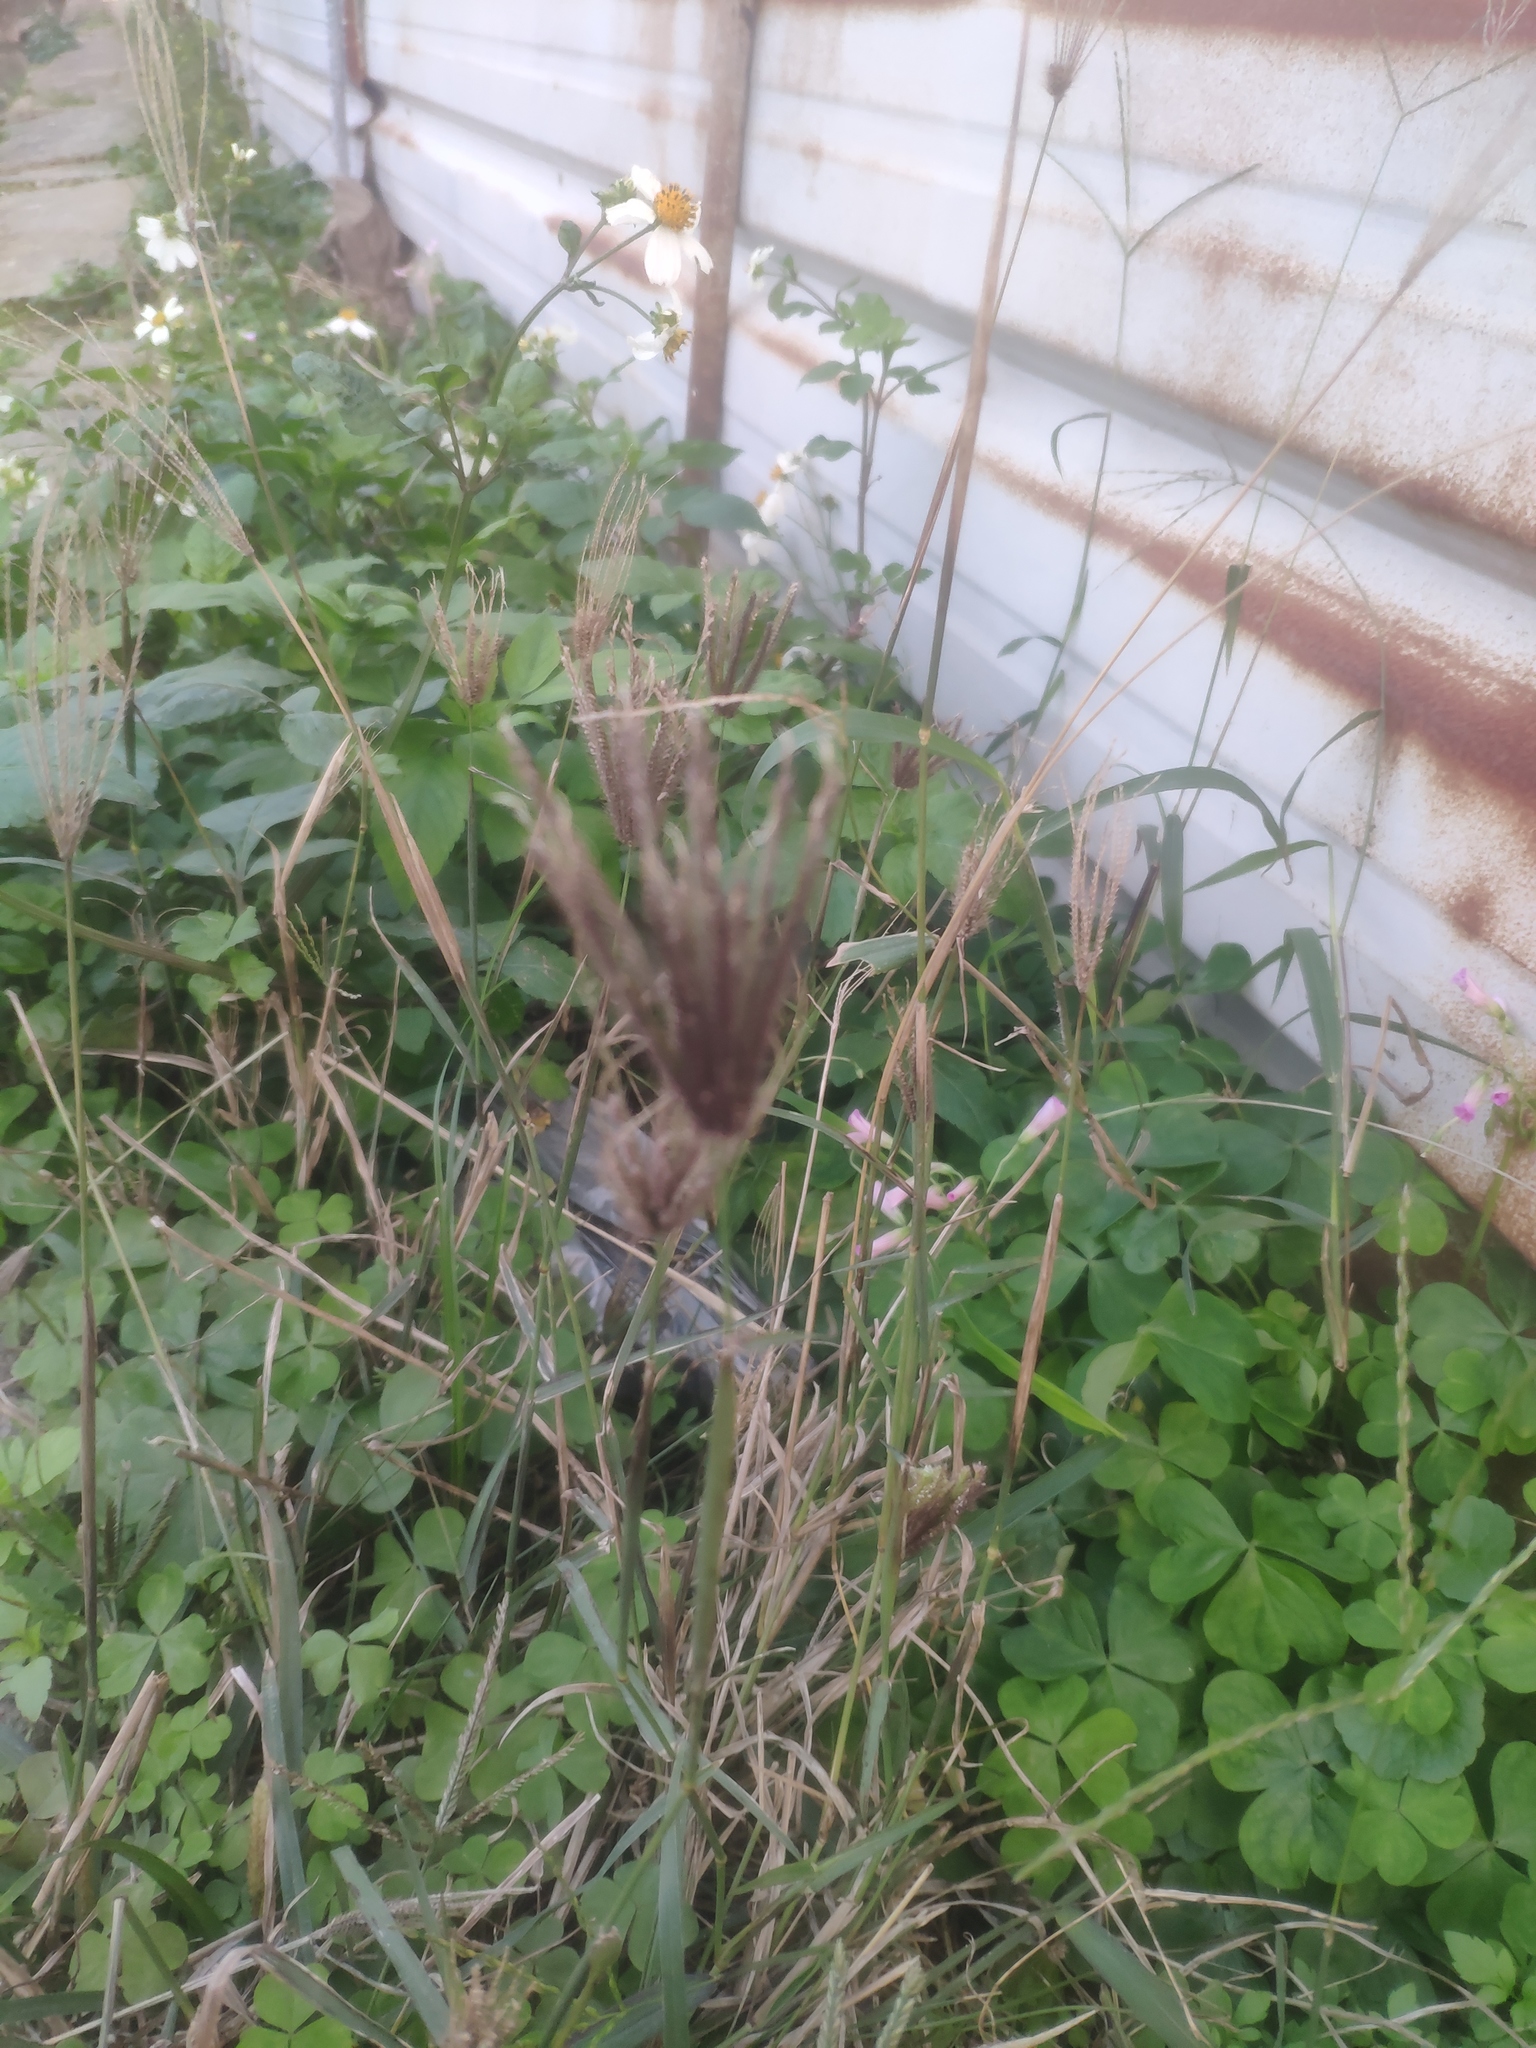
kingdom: Plantae
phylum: Tracheophyta
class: Liliopsida
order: Poales
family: Poaceae
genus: Chloris
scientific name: Chloris barbata
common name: Swollen fingergrass
